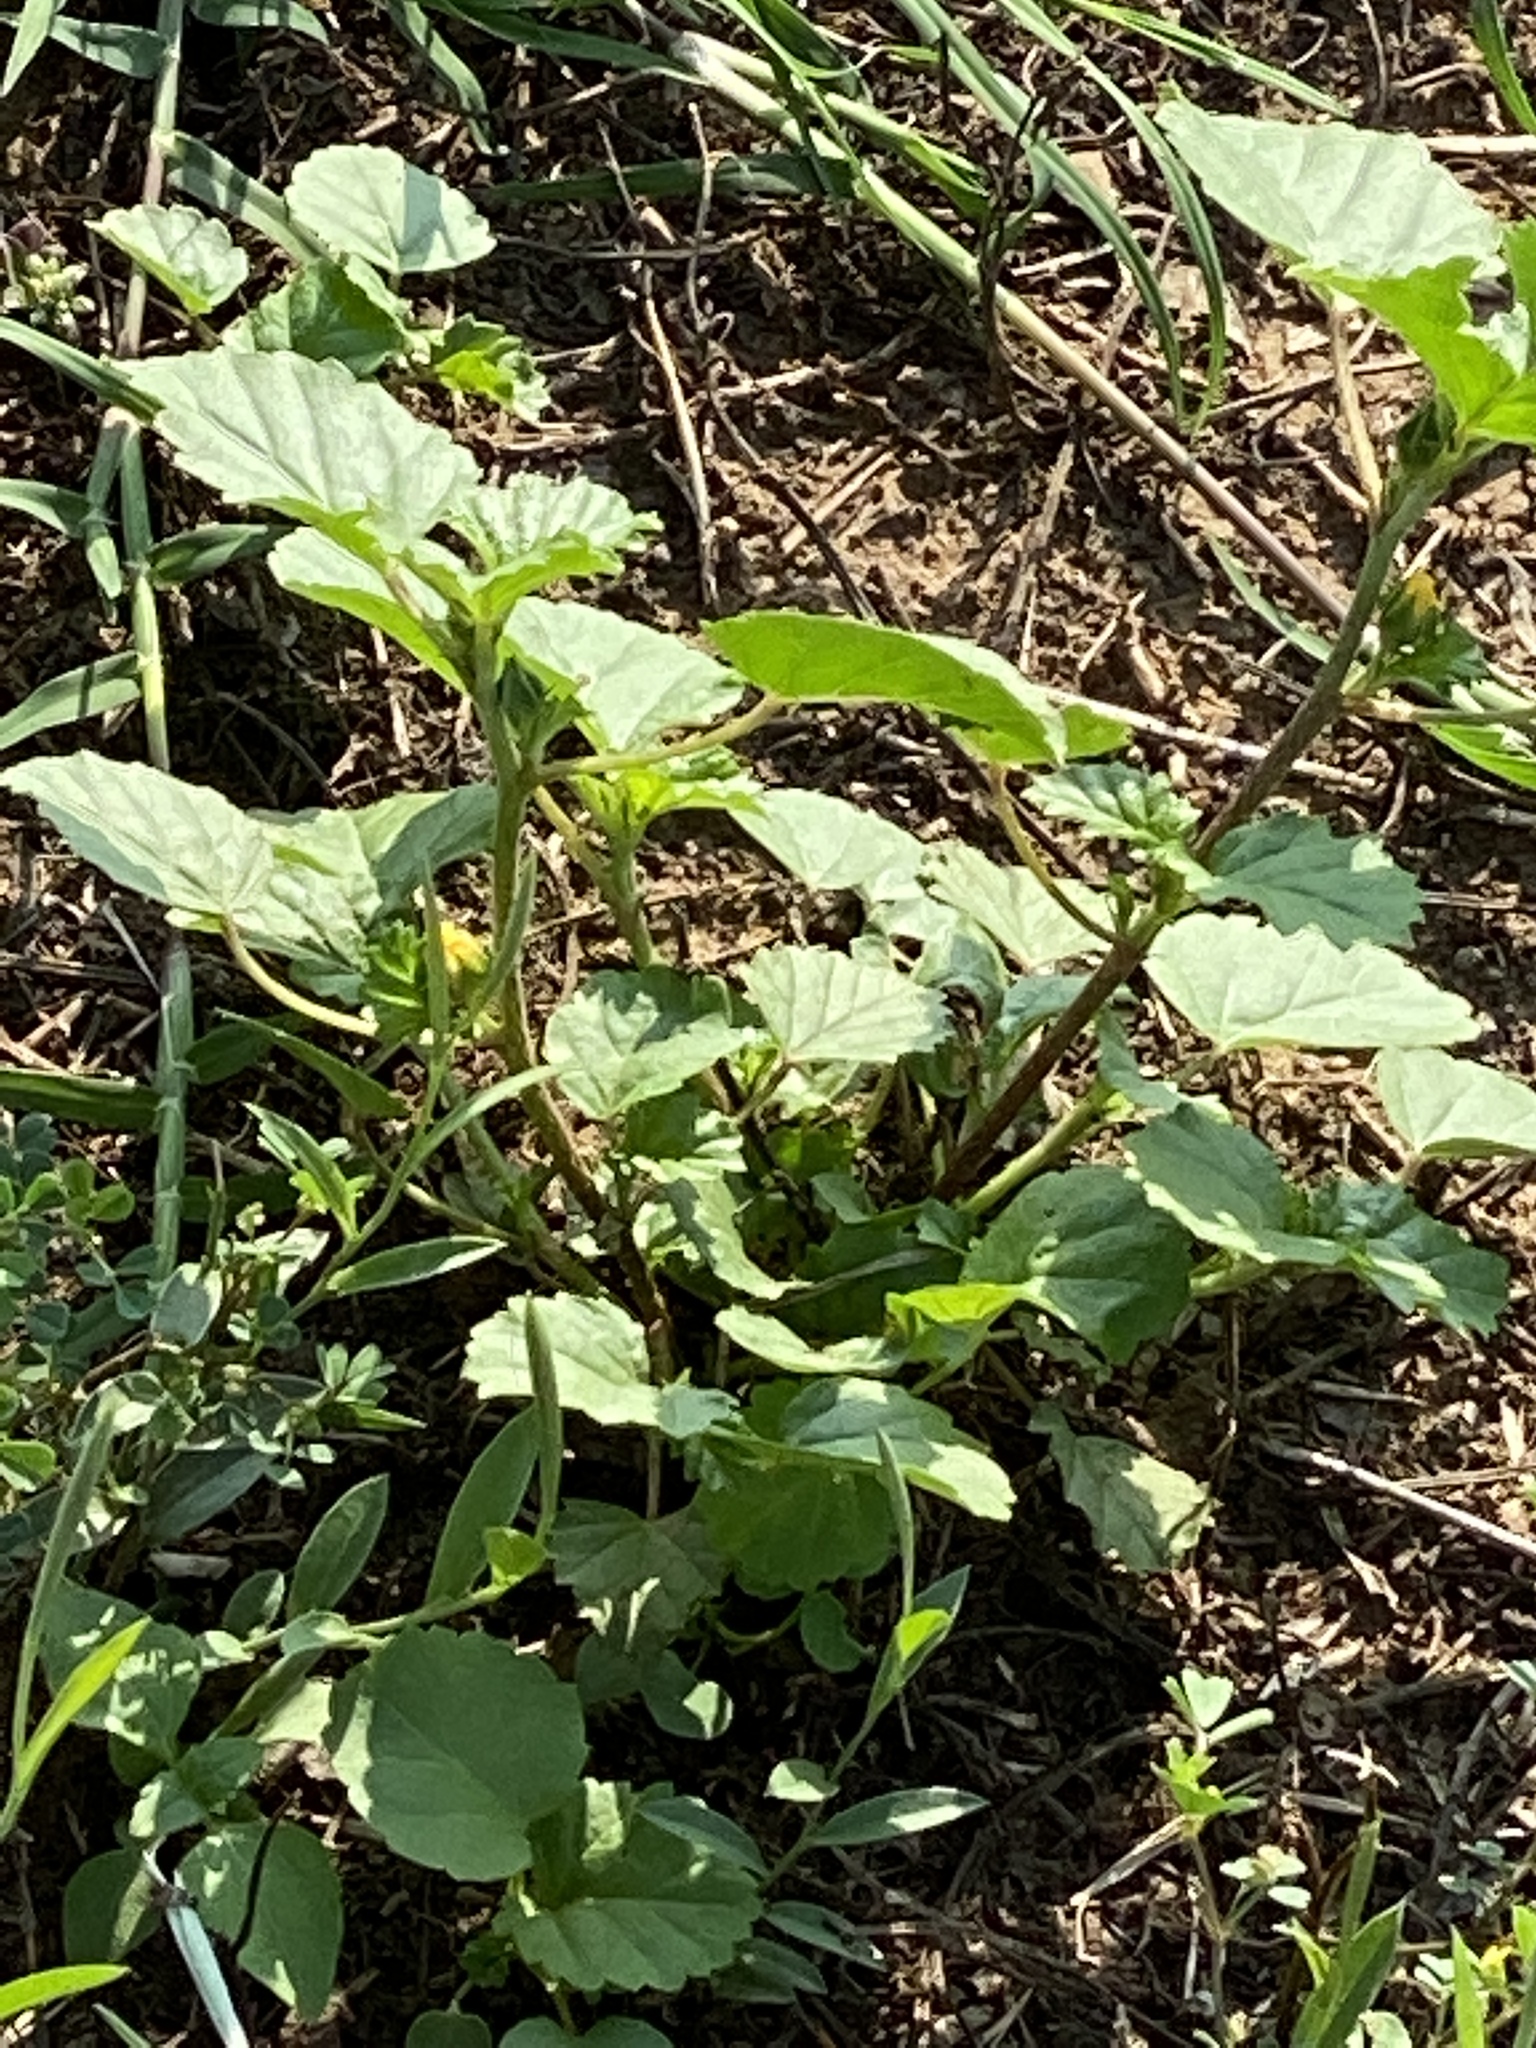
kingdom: Plantae
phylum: Tracheophyta
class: Magnoliopsida
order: Malvales
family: Malvaceae
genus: Malvastrum
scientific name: Malvastrum coromandelianum
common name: Threelobe false mallow
